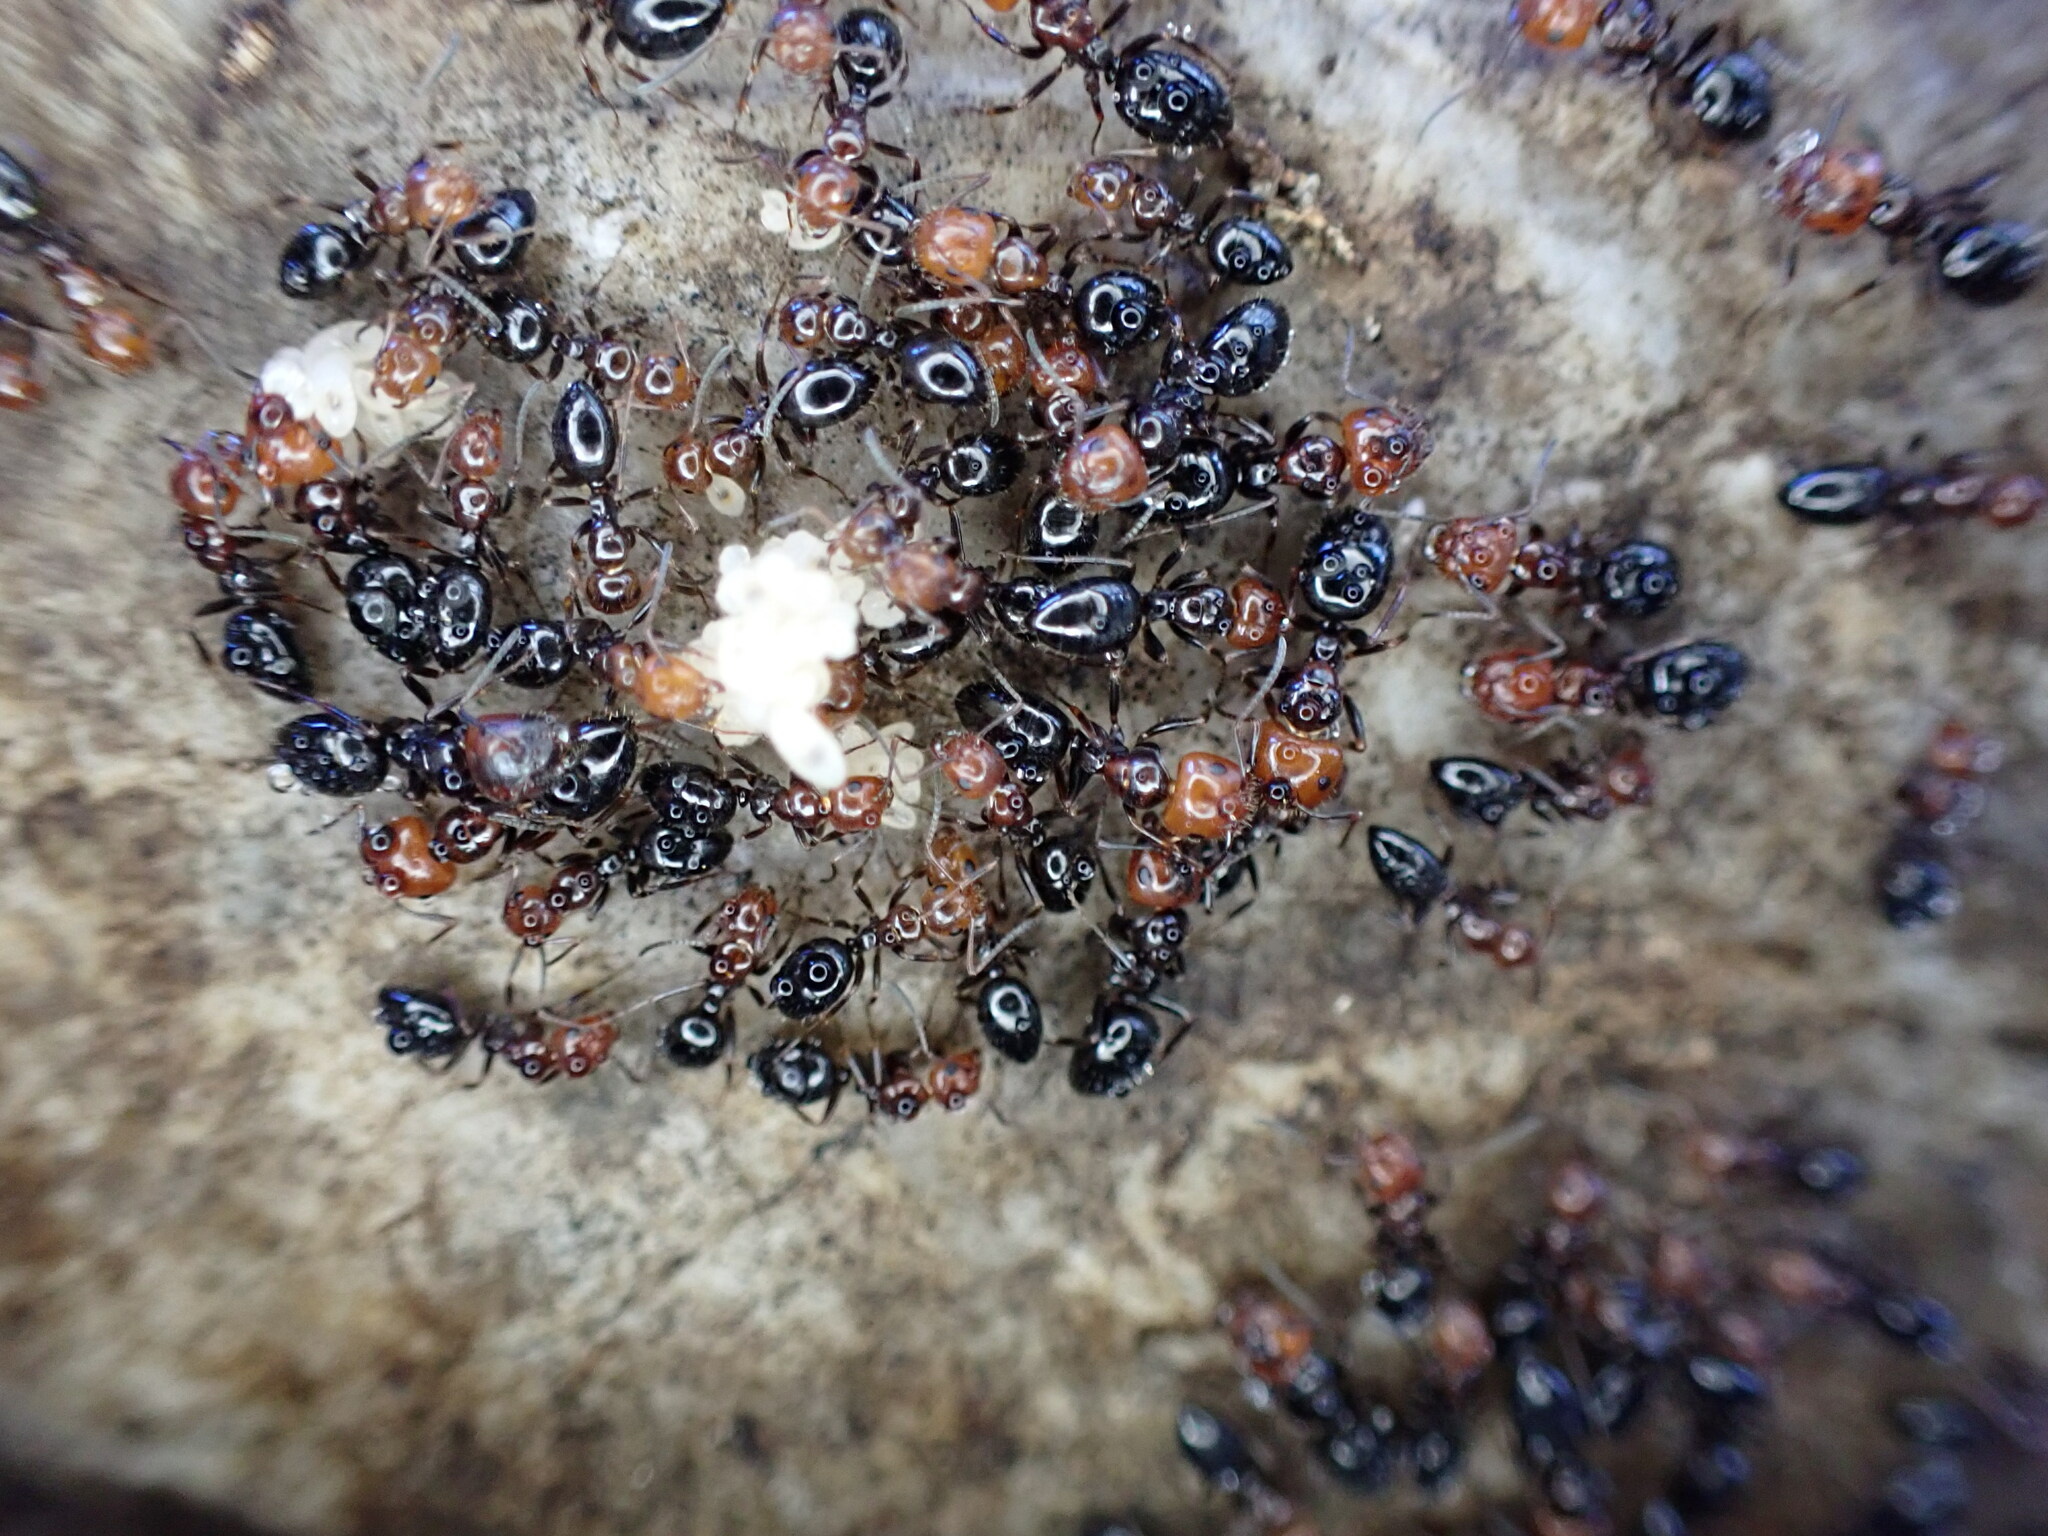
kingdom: Animalia
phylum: Arthropoda
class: Insecta
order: Hymenoptera
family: Formicidae
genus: Camponotus
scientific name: Camponotus lateralis
